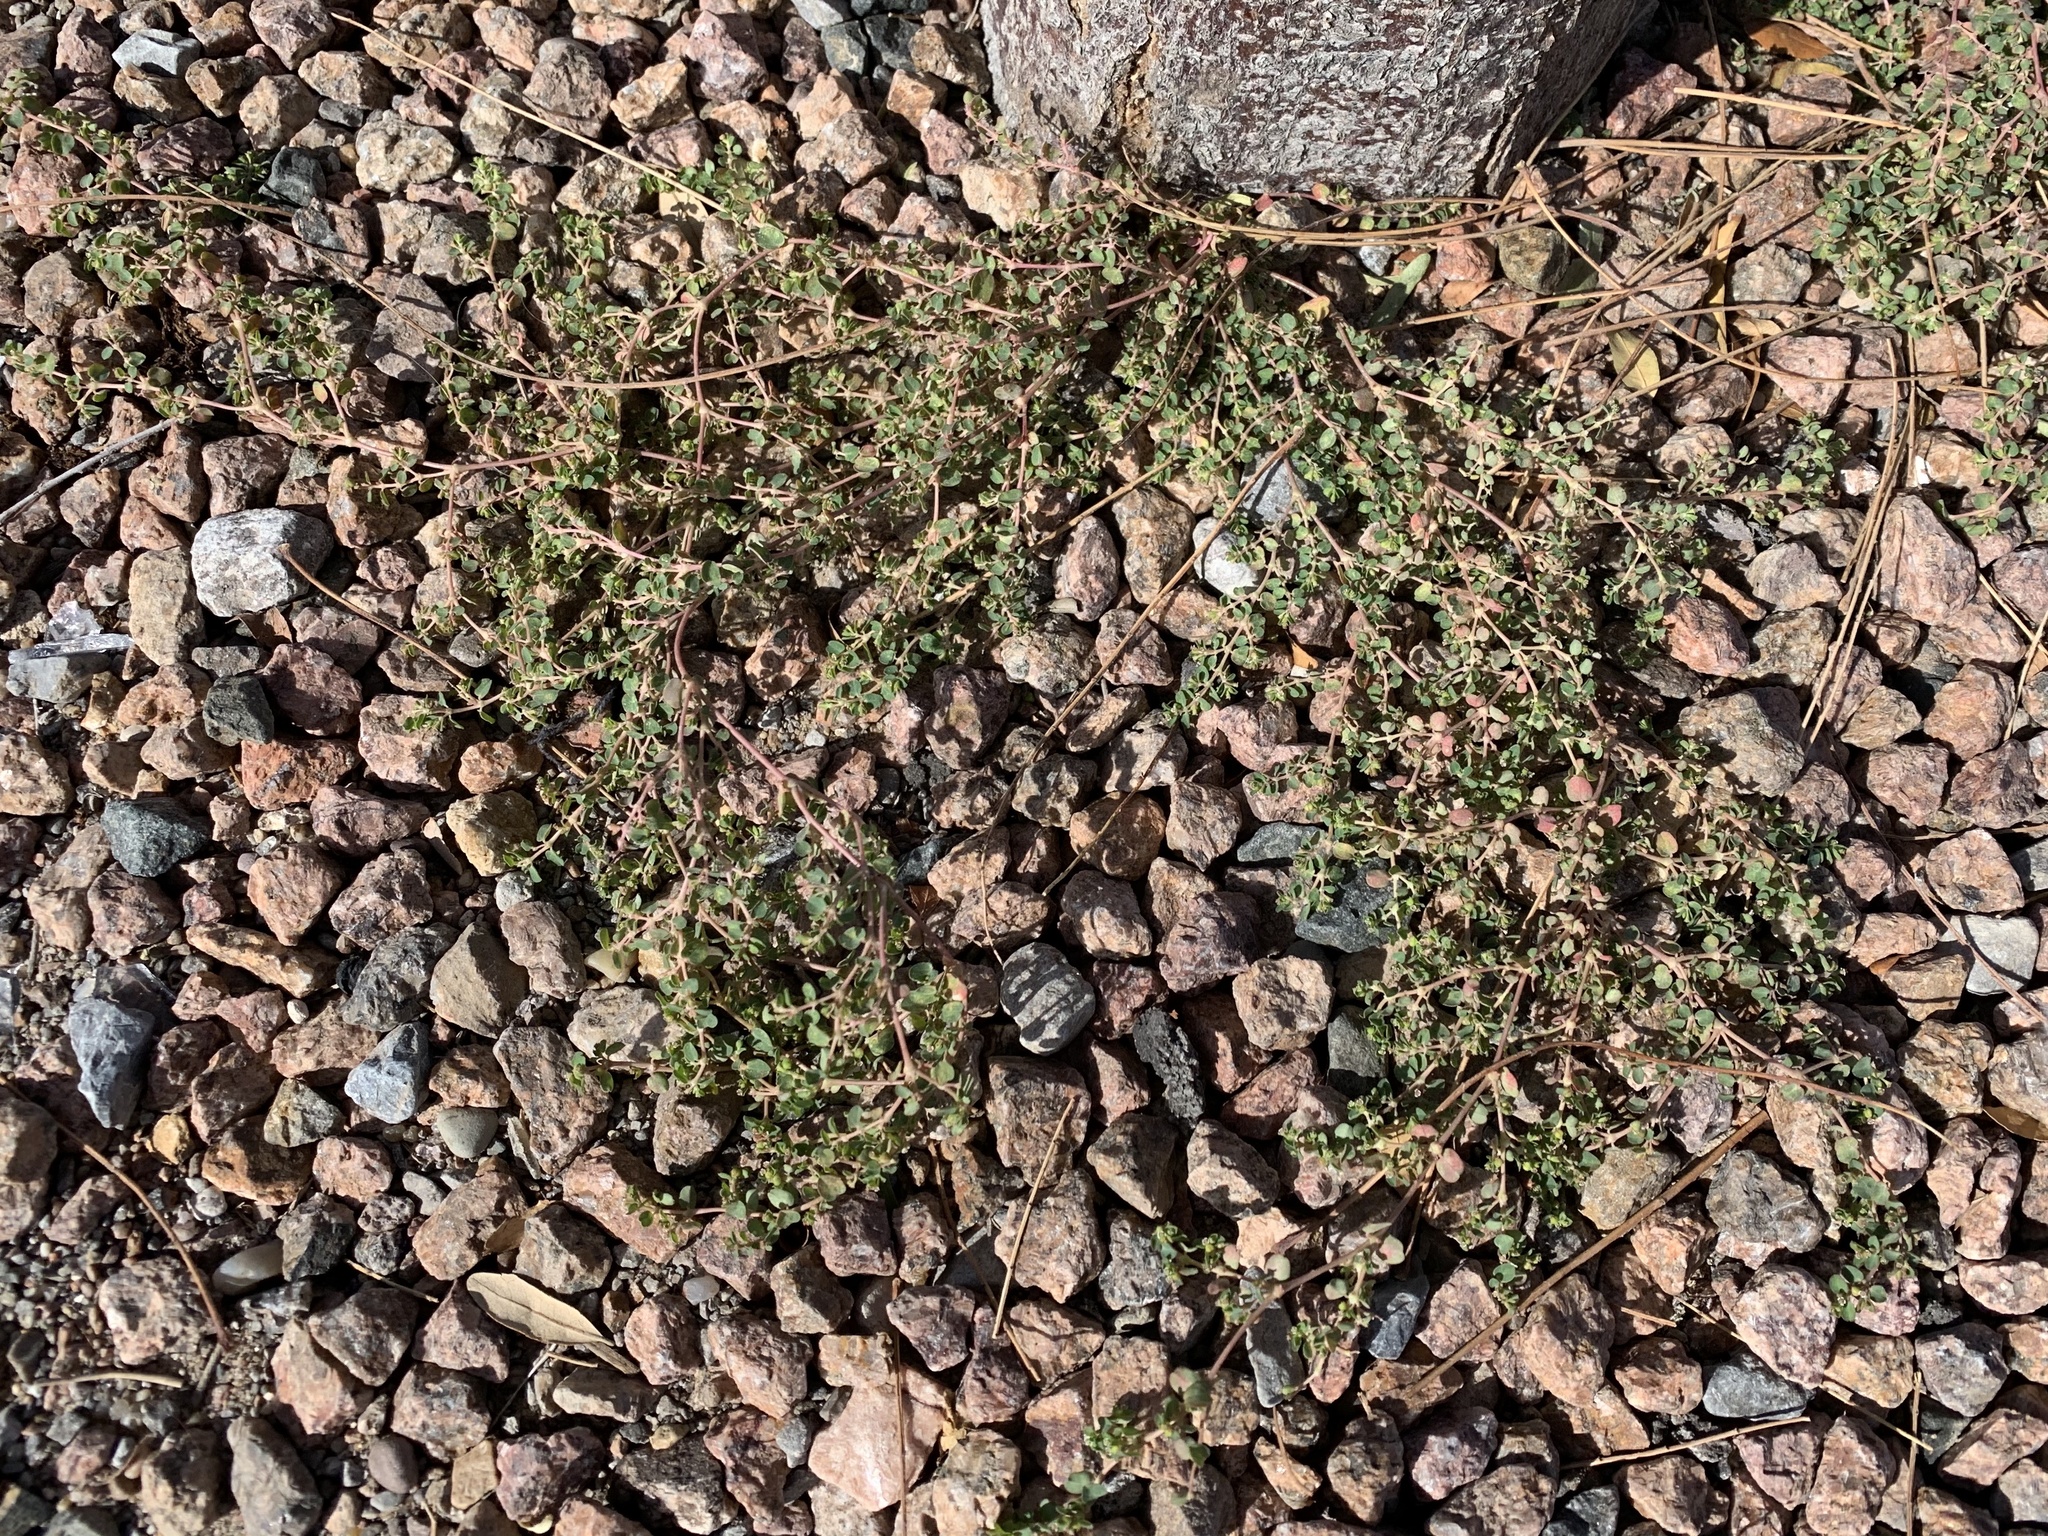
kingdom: Plantae
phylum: Tracheophyta
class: Magnoliopsida
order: Malpighiales
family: Euphorbiaceae
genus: Euphorbia
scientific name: Euphorbia serpens
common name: Matted sandmat
